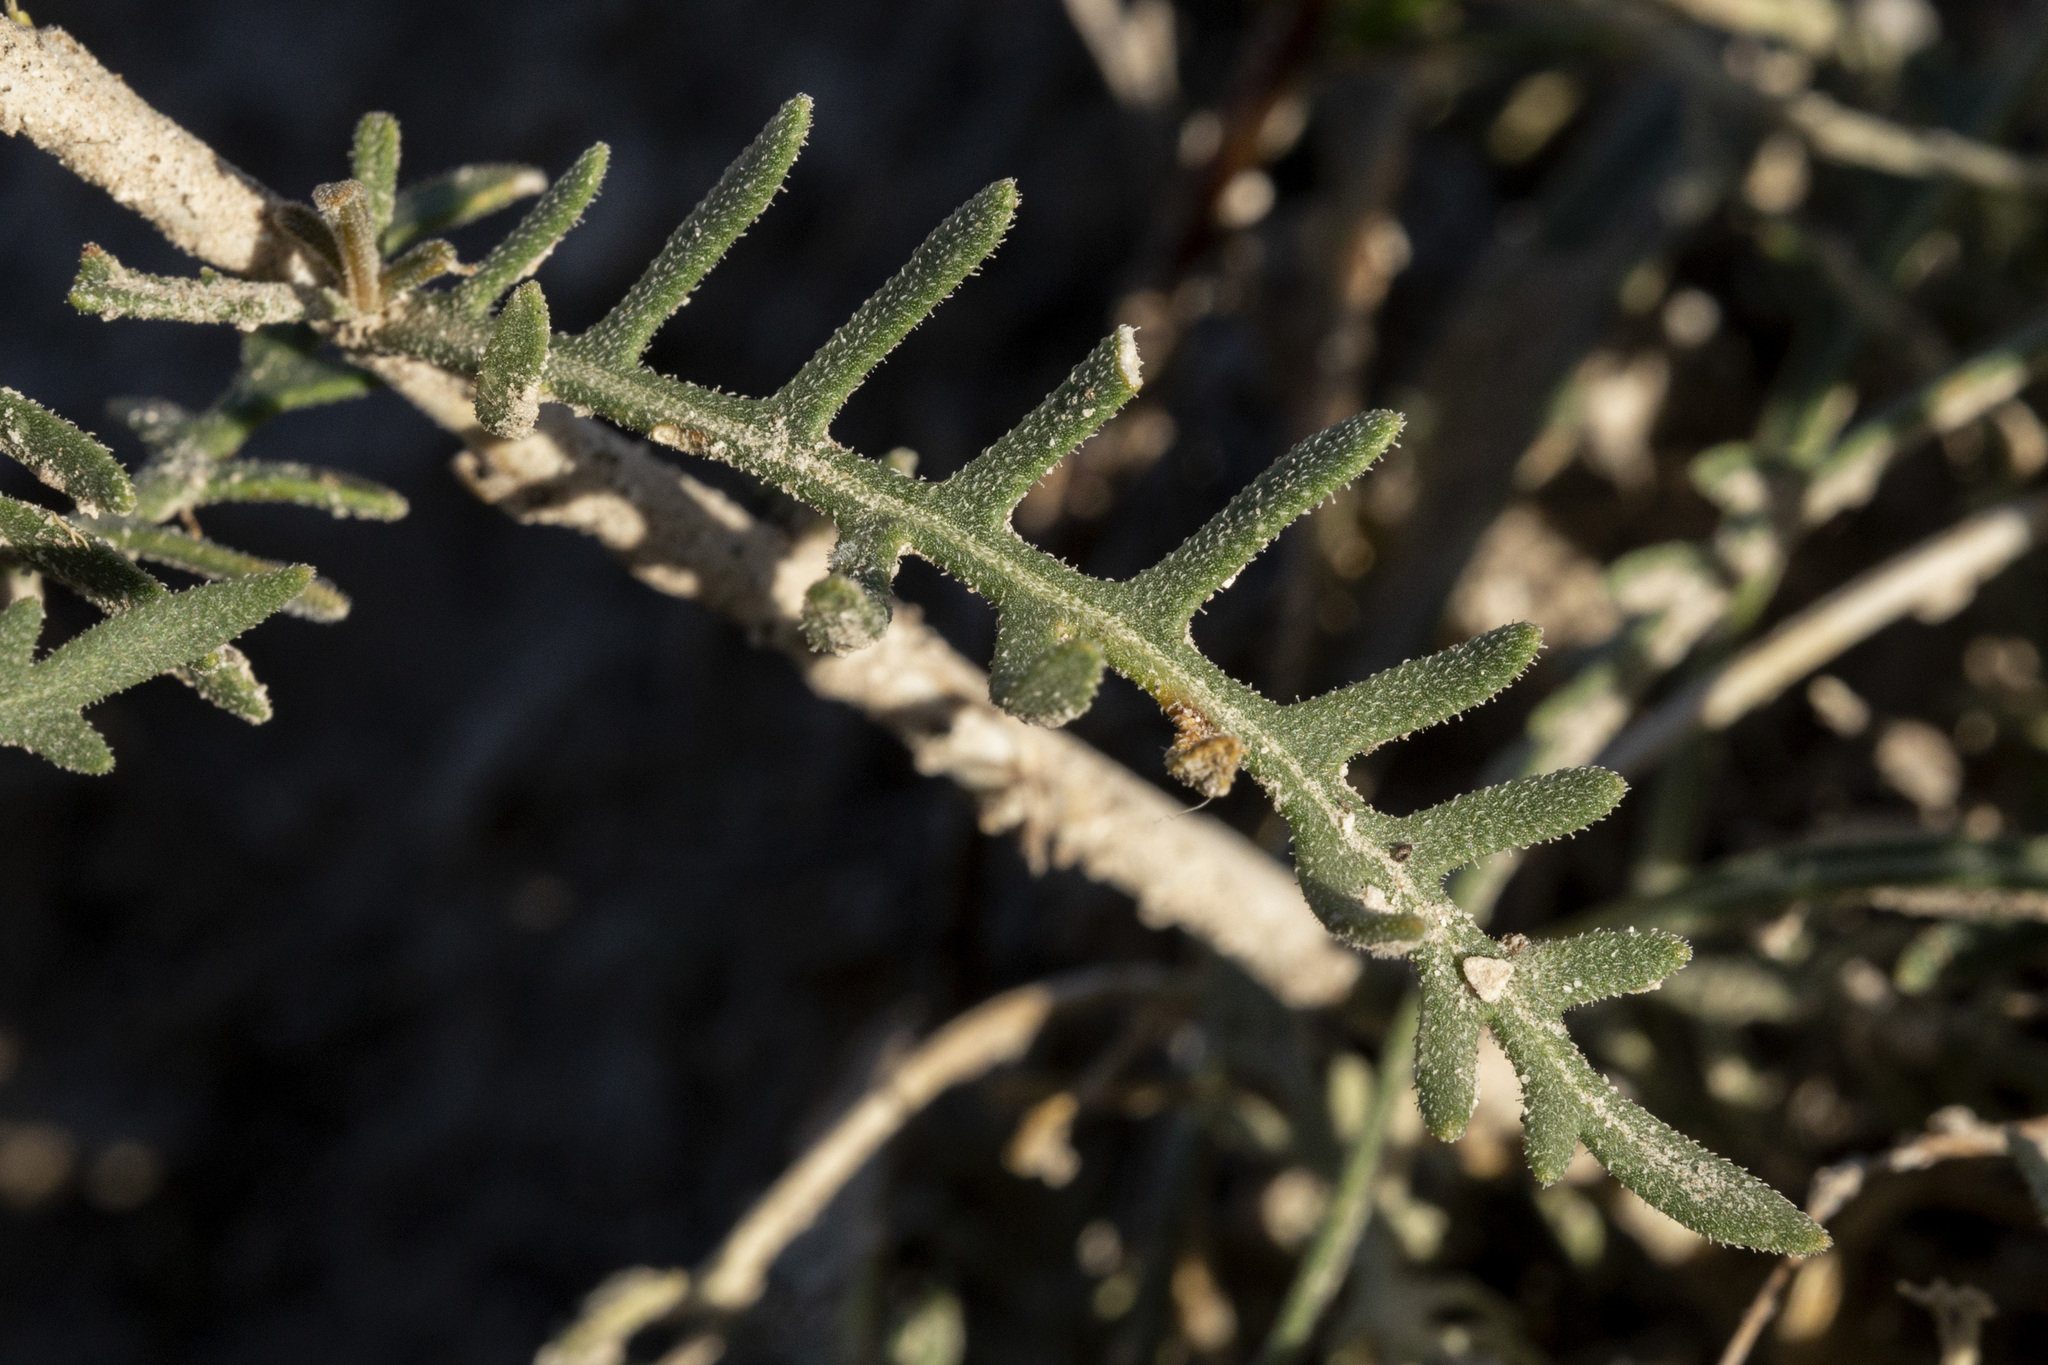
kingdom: Plantae
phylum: Tracheophyta
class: Magnoliopsida
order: Cornales
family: Loasaceae
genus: Mentzelia
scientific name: Mentzelia humilis
